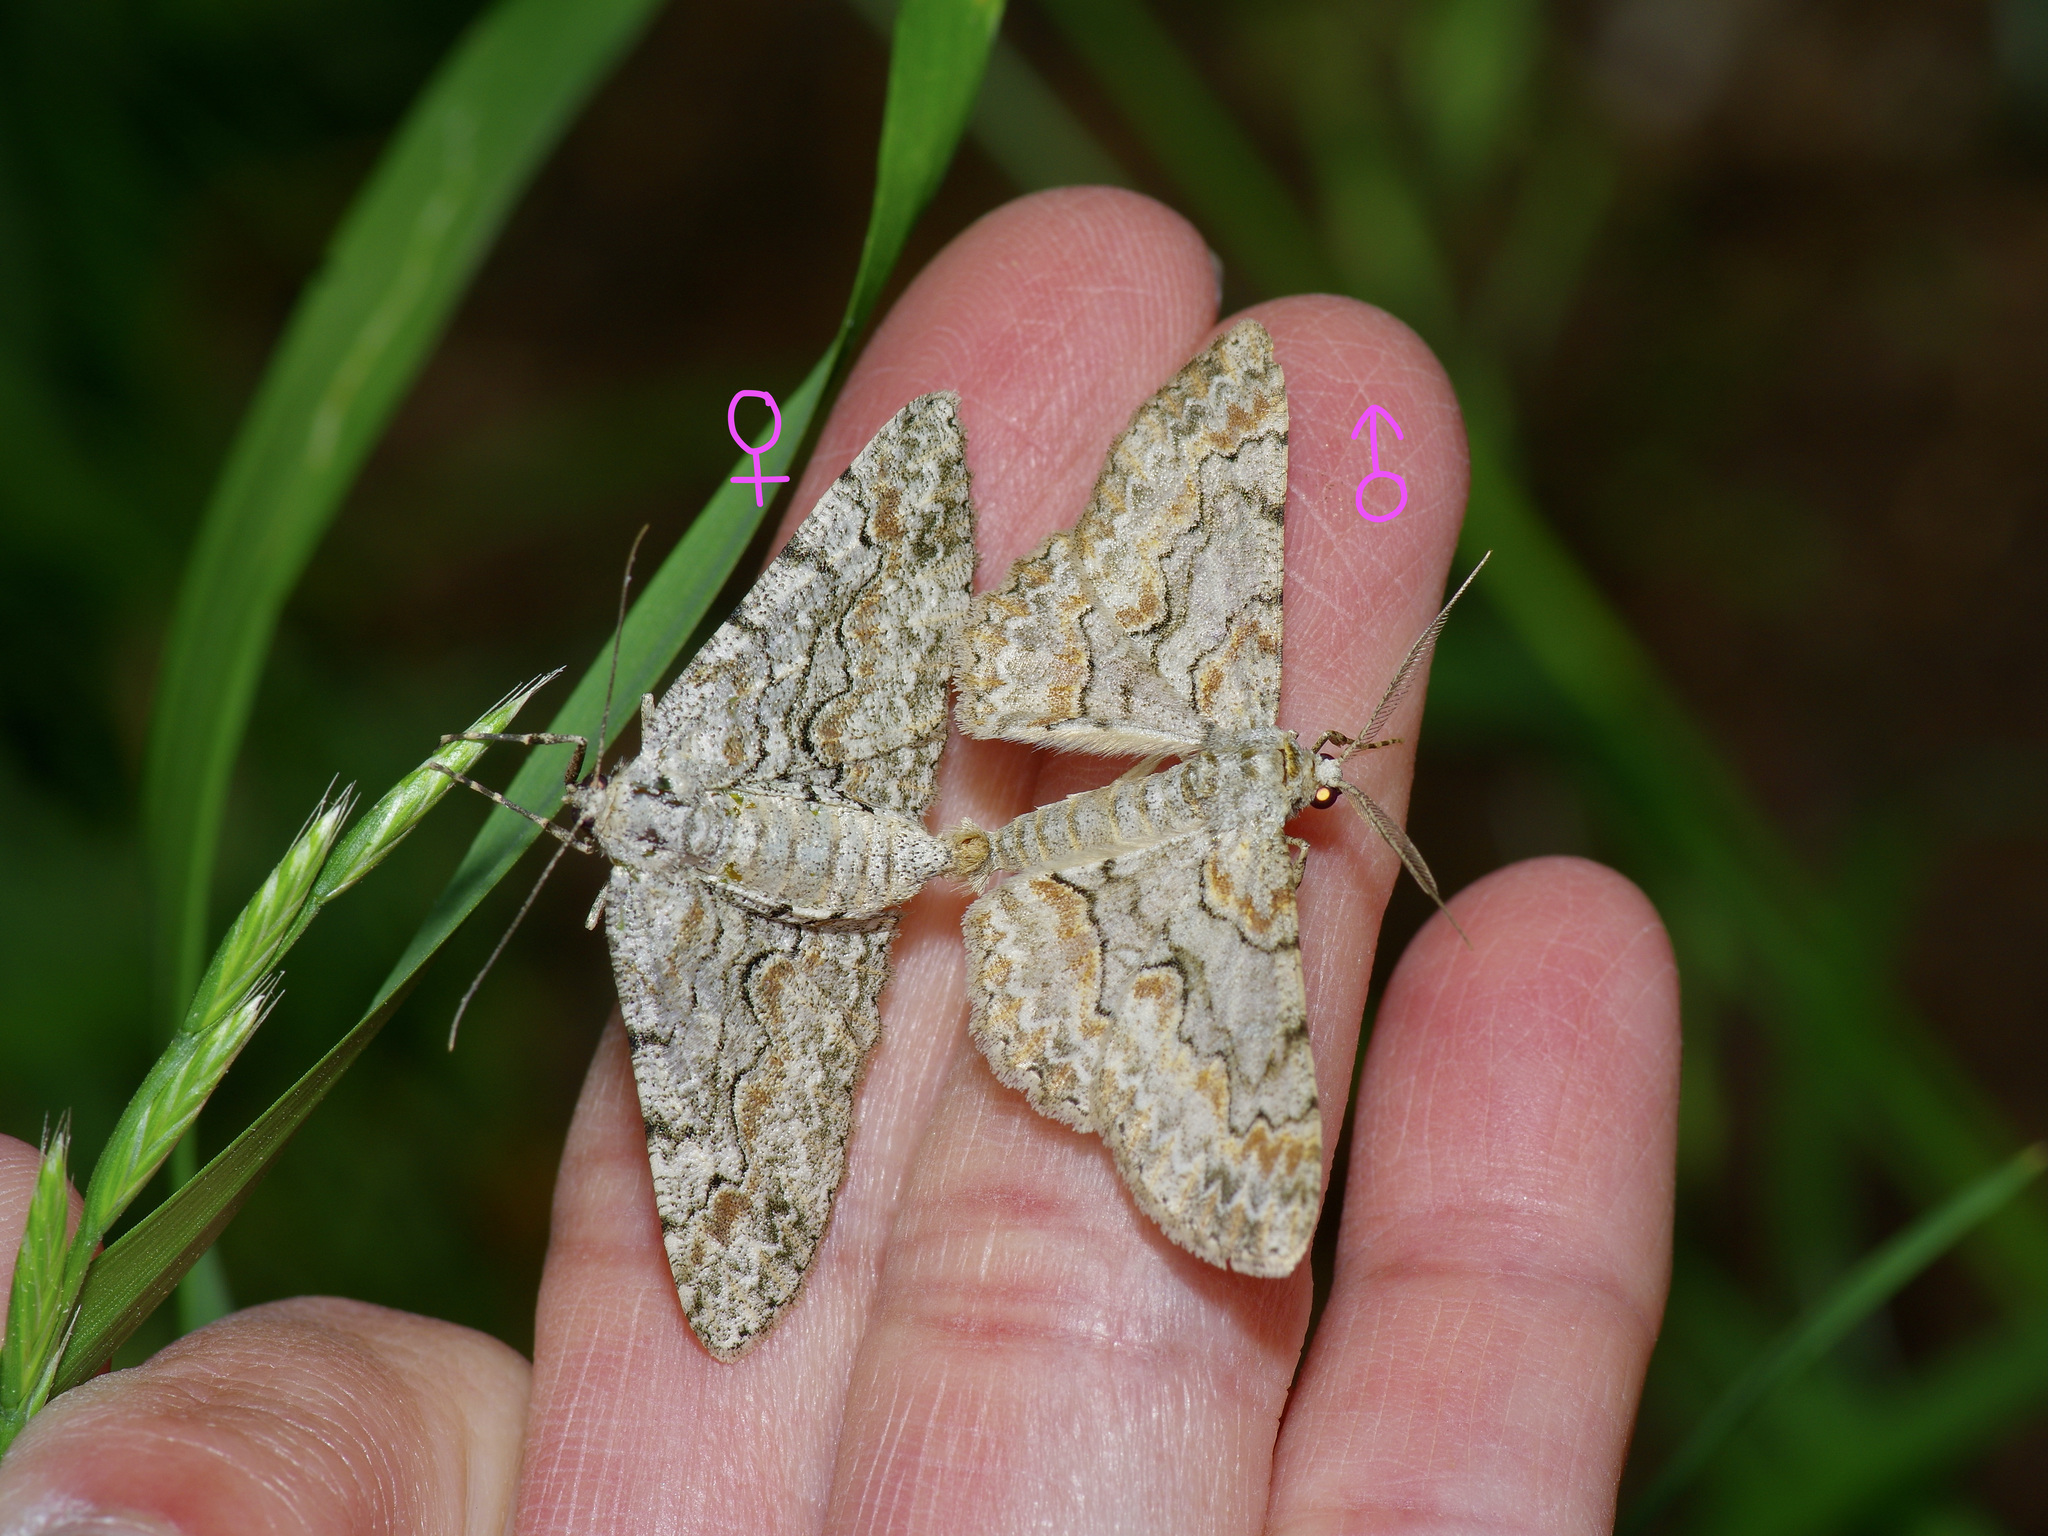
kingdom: Animalia
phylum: Arthropoda
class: Insecta
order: Lepidoptera
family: Geometridae
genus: Iridopsis
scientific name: Iridopsis defectaria
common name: Brown-shaded gray
